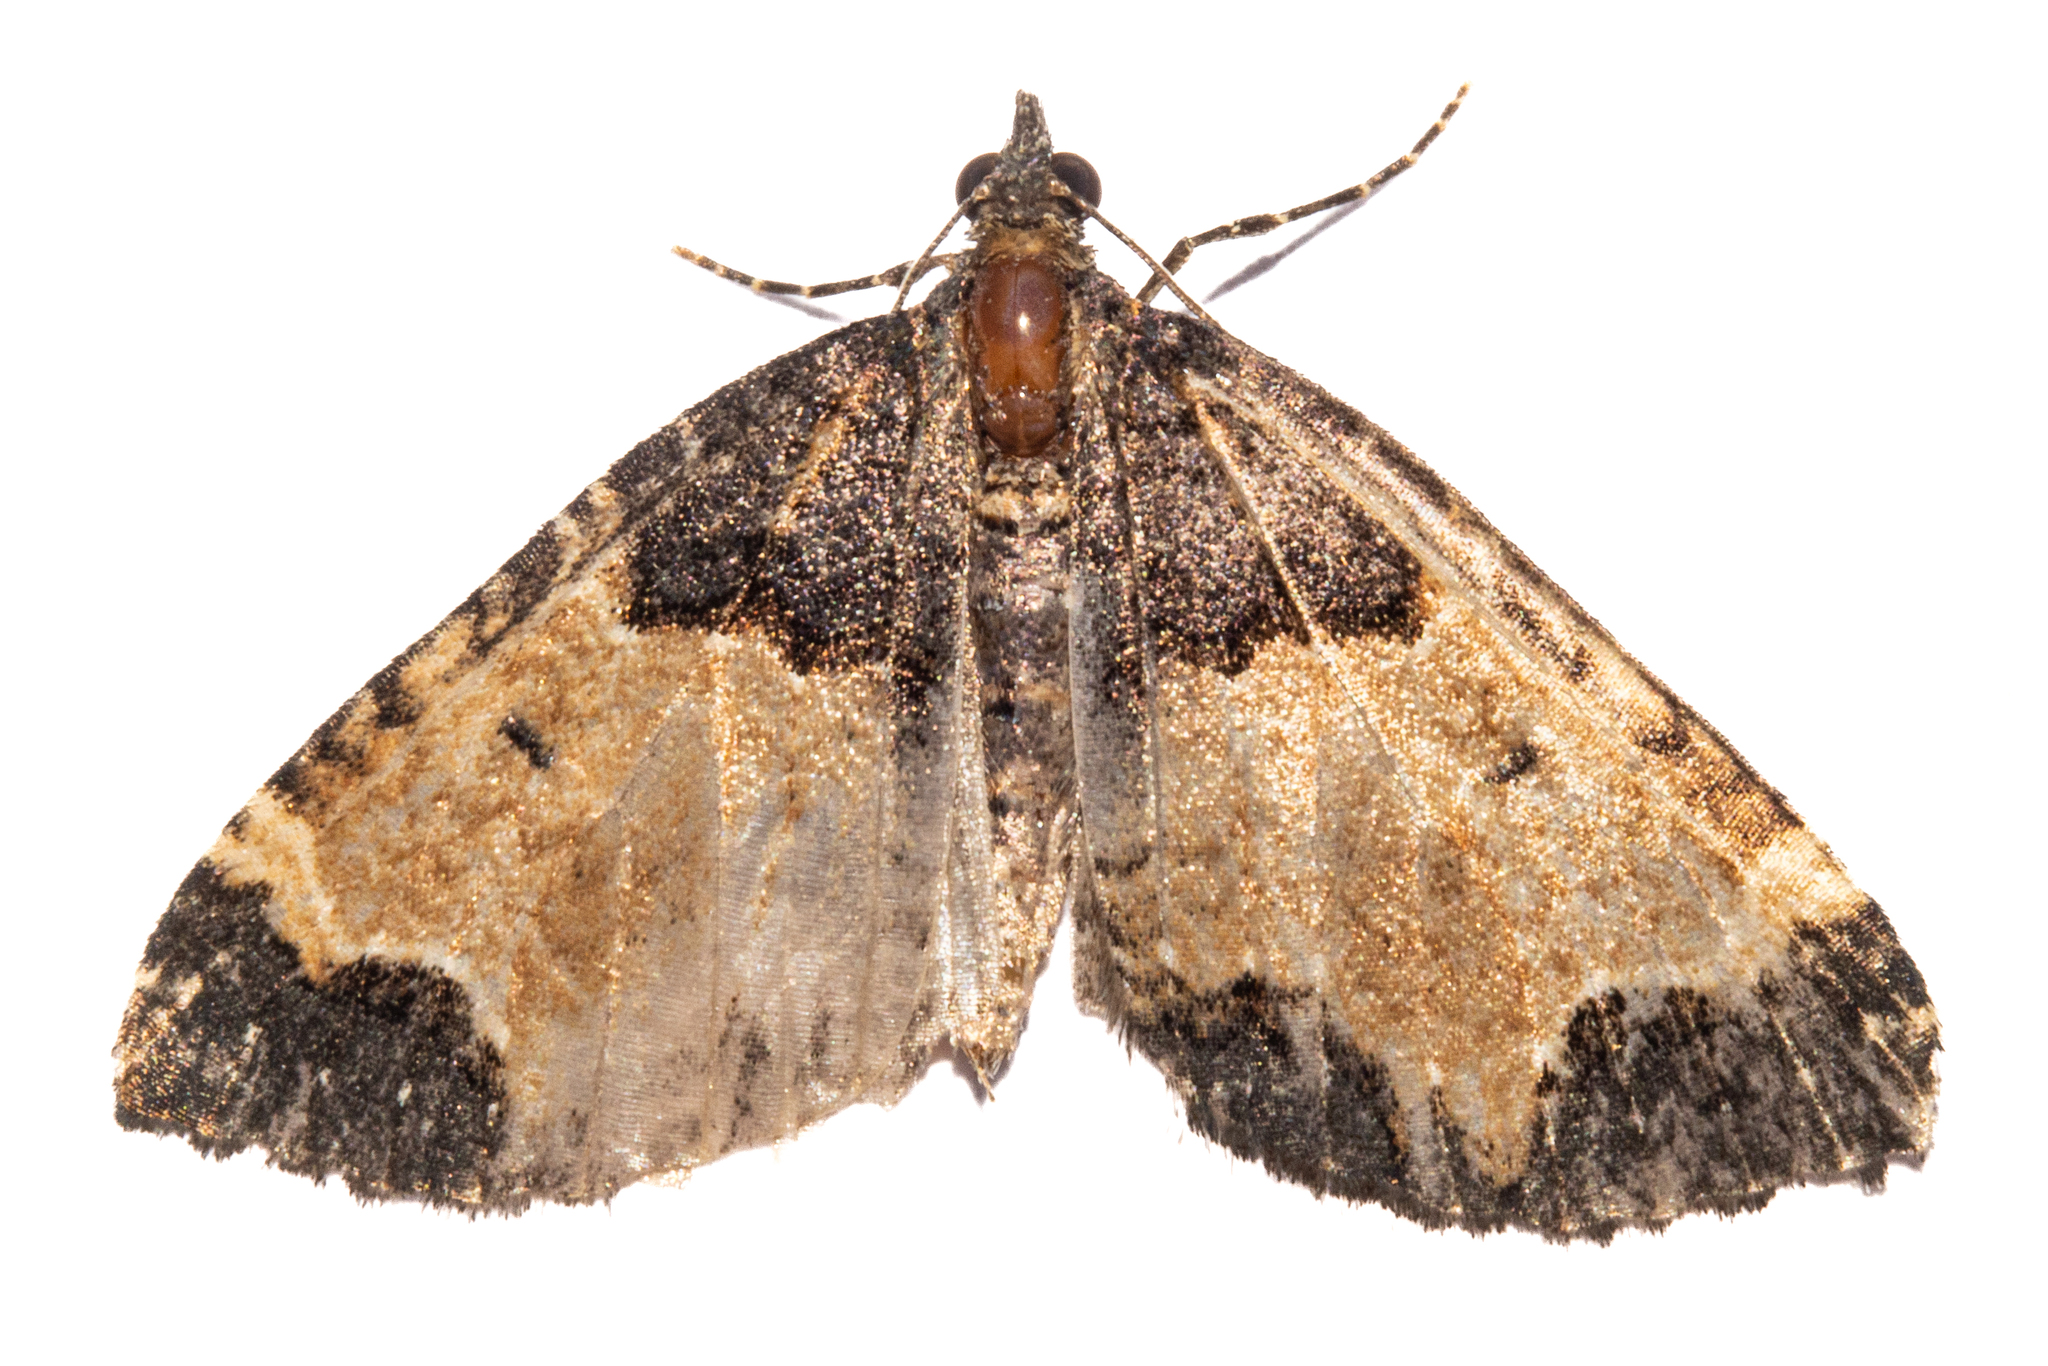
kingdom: Animalia
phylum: Arthropoda
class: Insecta
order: Lepidoptera
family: Geometridae
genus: Hydriomena
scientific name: Hydriomena arida
